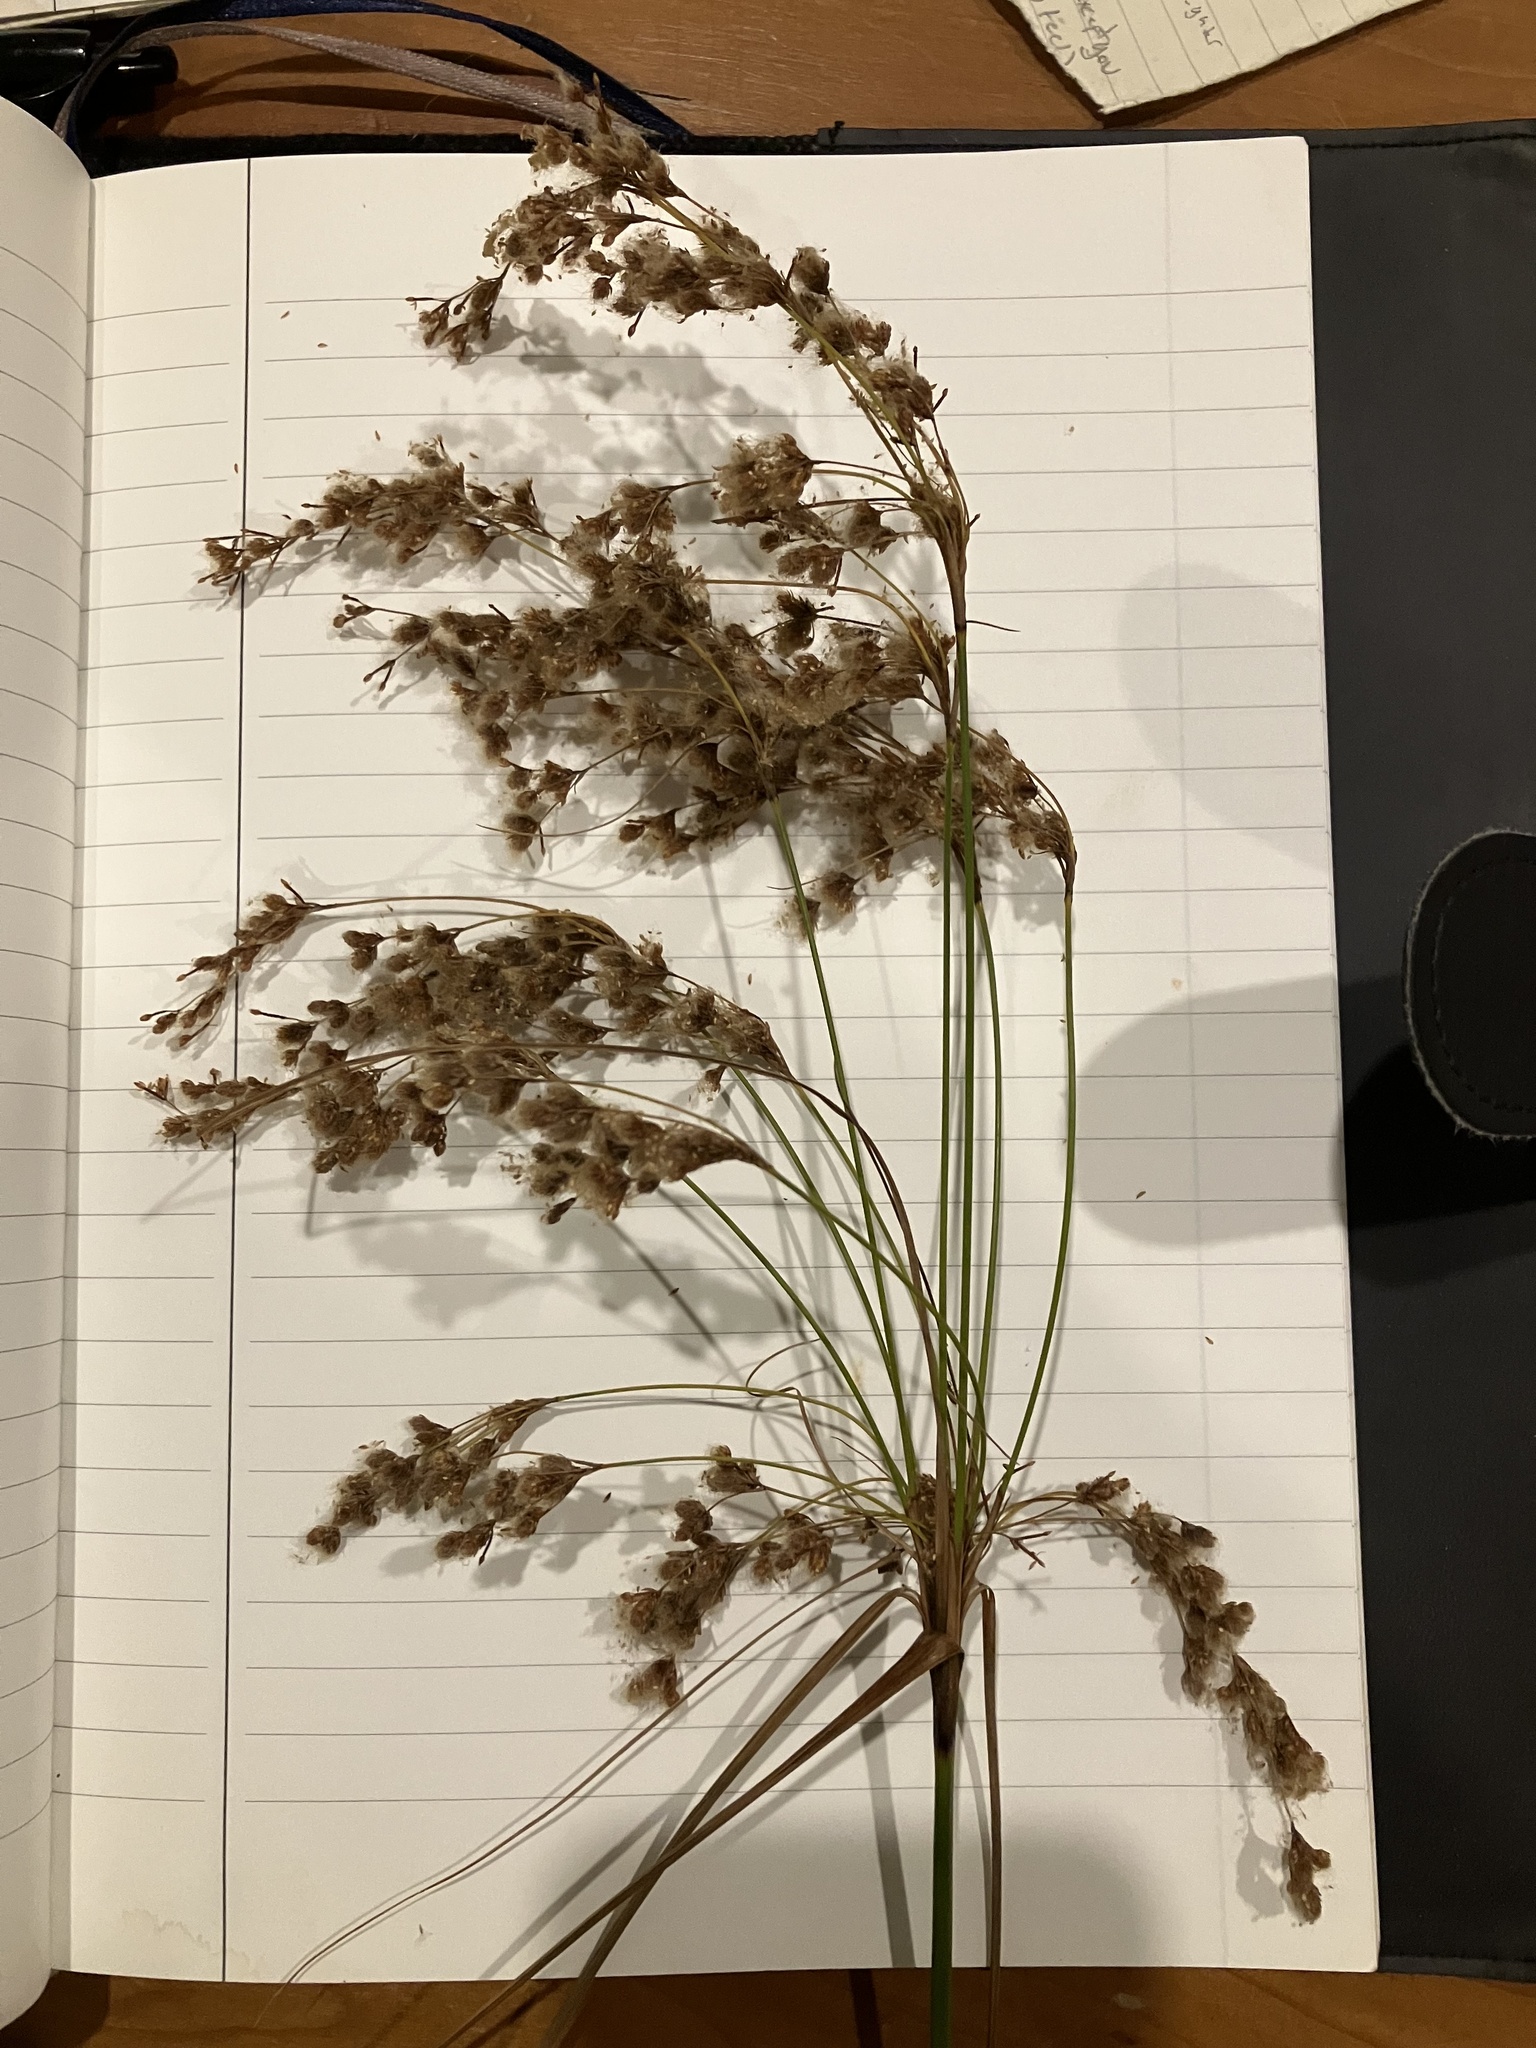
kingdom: Plantae
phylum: Tracheophyta
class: Liliopsida
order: Poales
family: Cyperaceae
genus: Scirpus
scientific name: Scirpus cyperinus
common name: Black-sheathed bulrush
